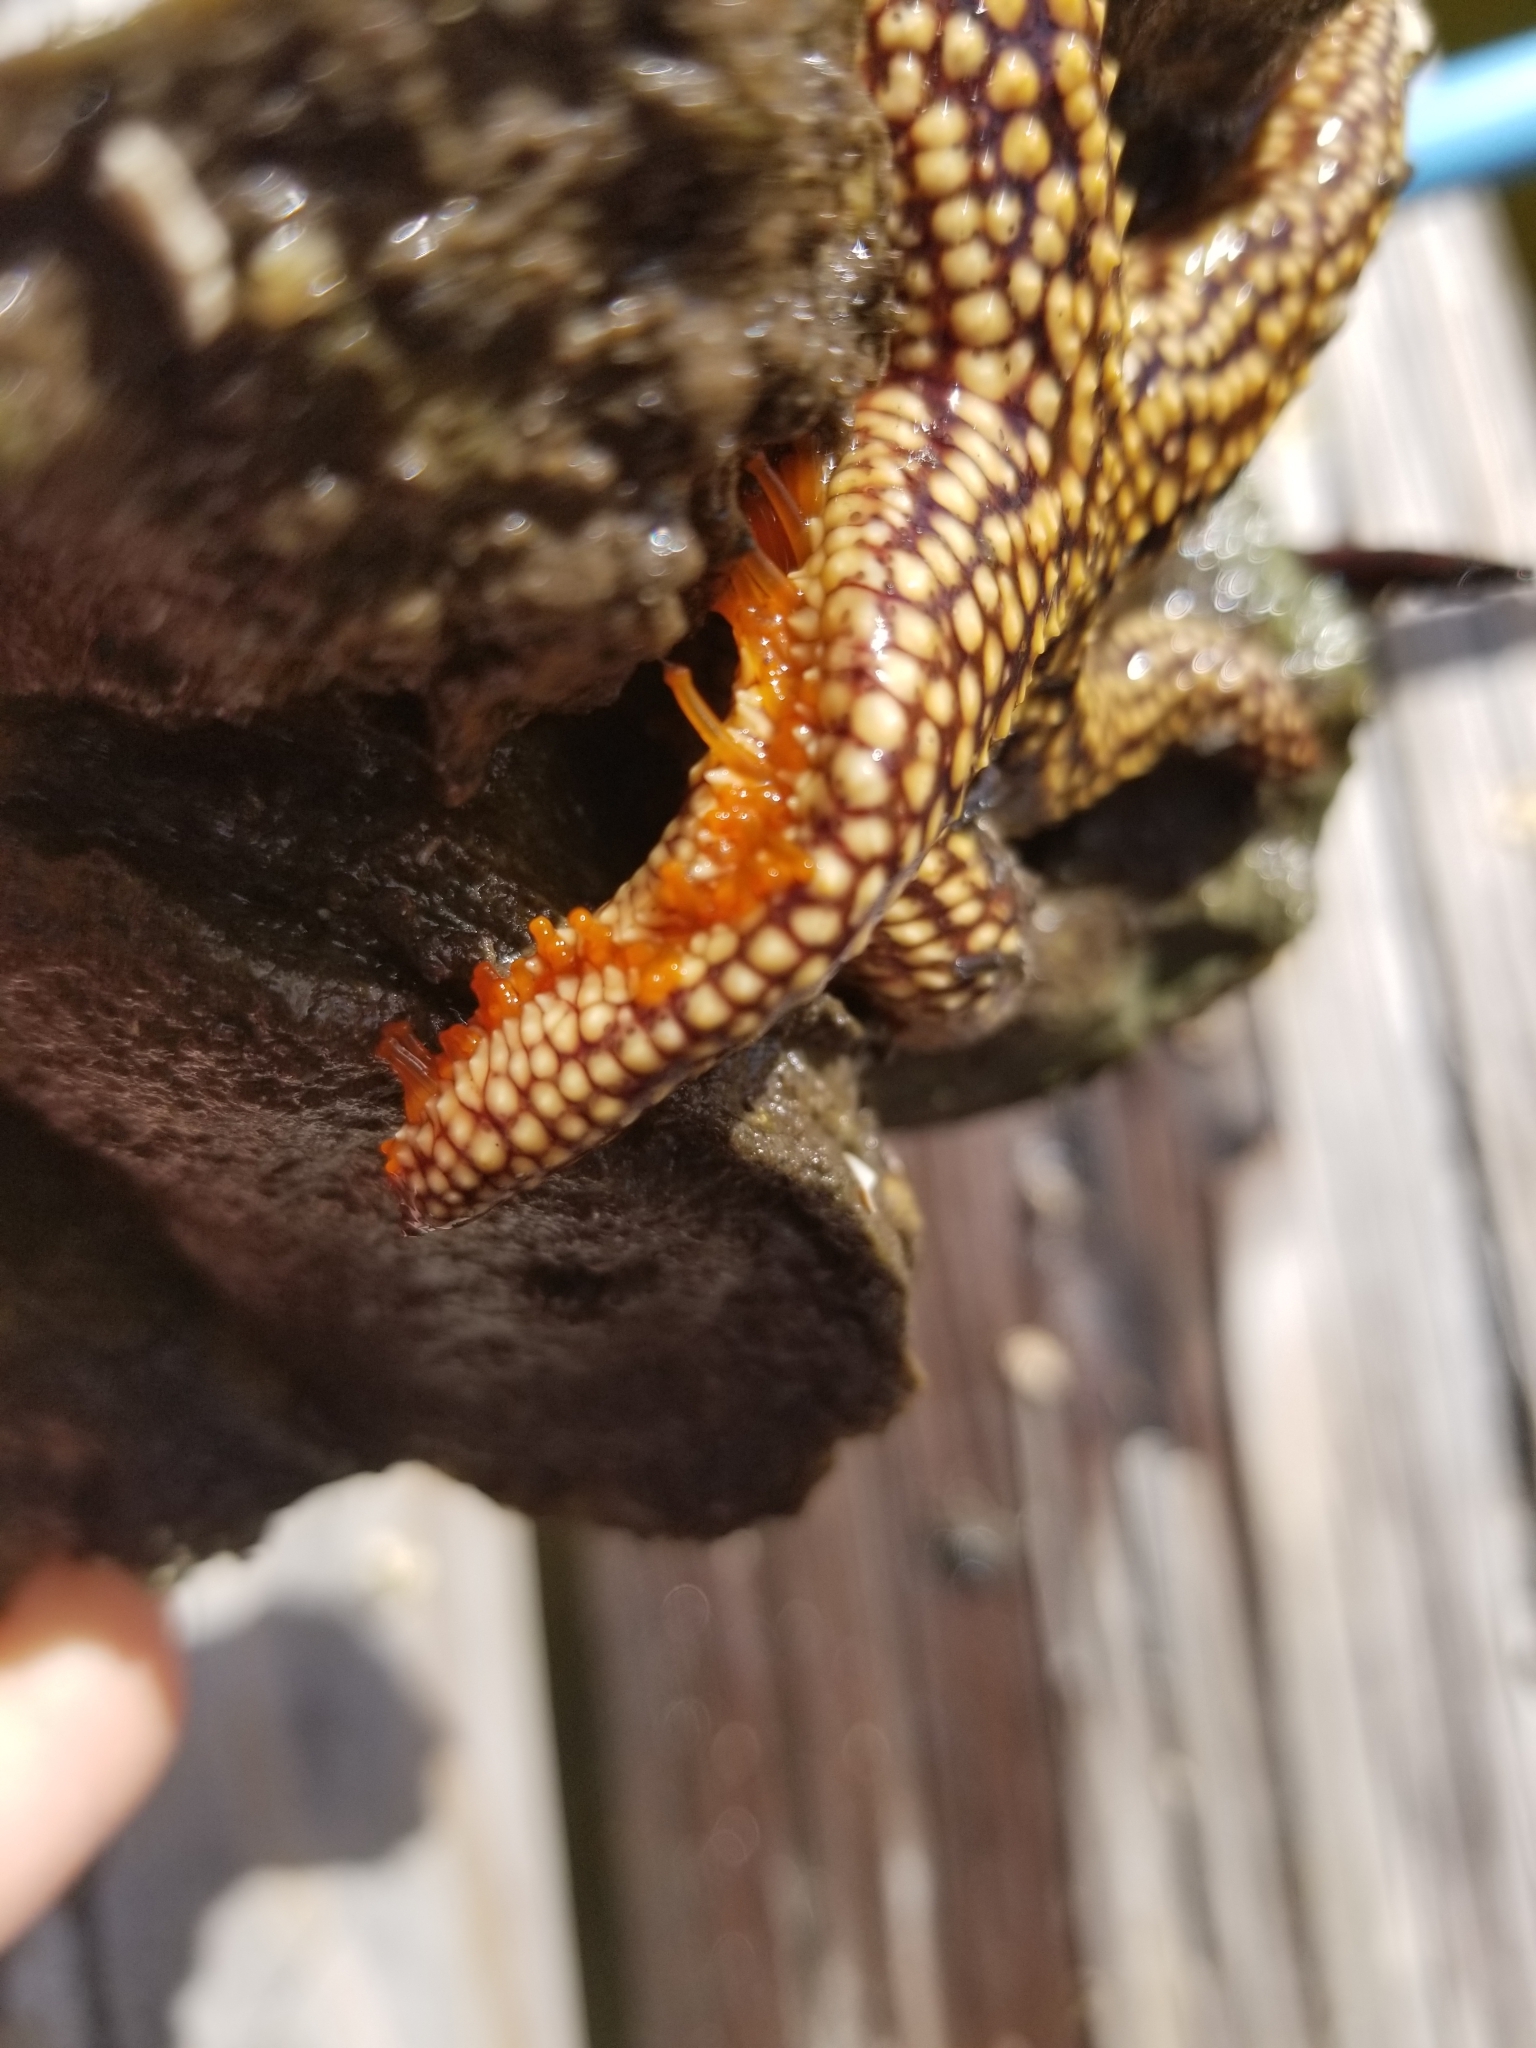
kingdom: Animalia
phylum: Echinodermata
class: Asteroidea
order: Spinulosida
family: Echinasteridae
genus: Echinaster
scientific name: Echinaster sentus
